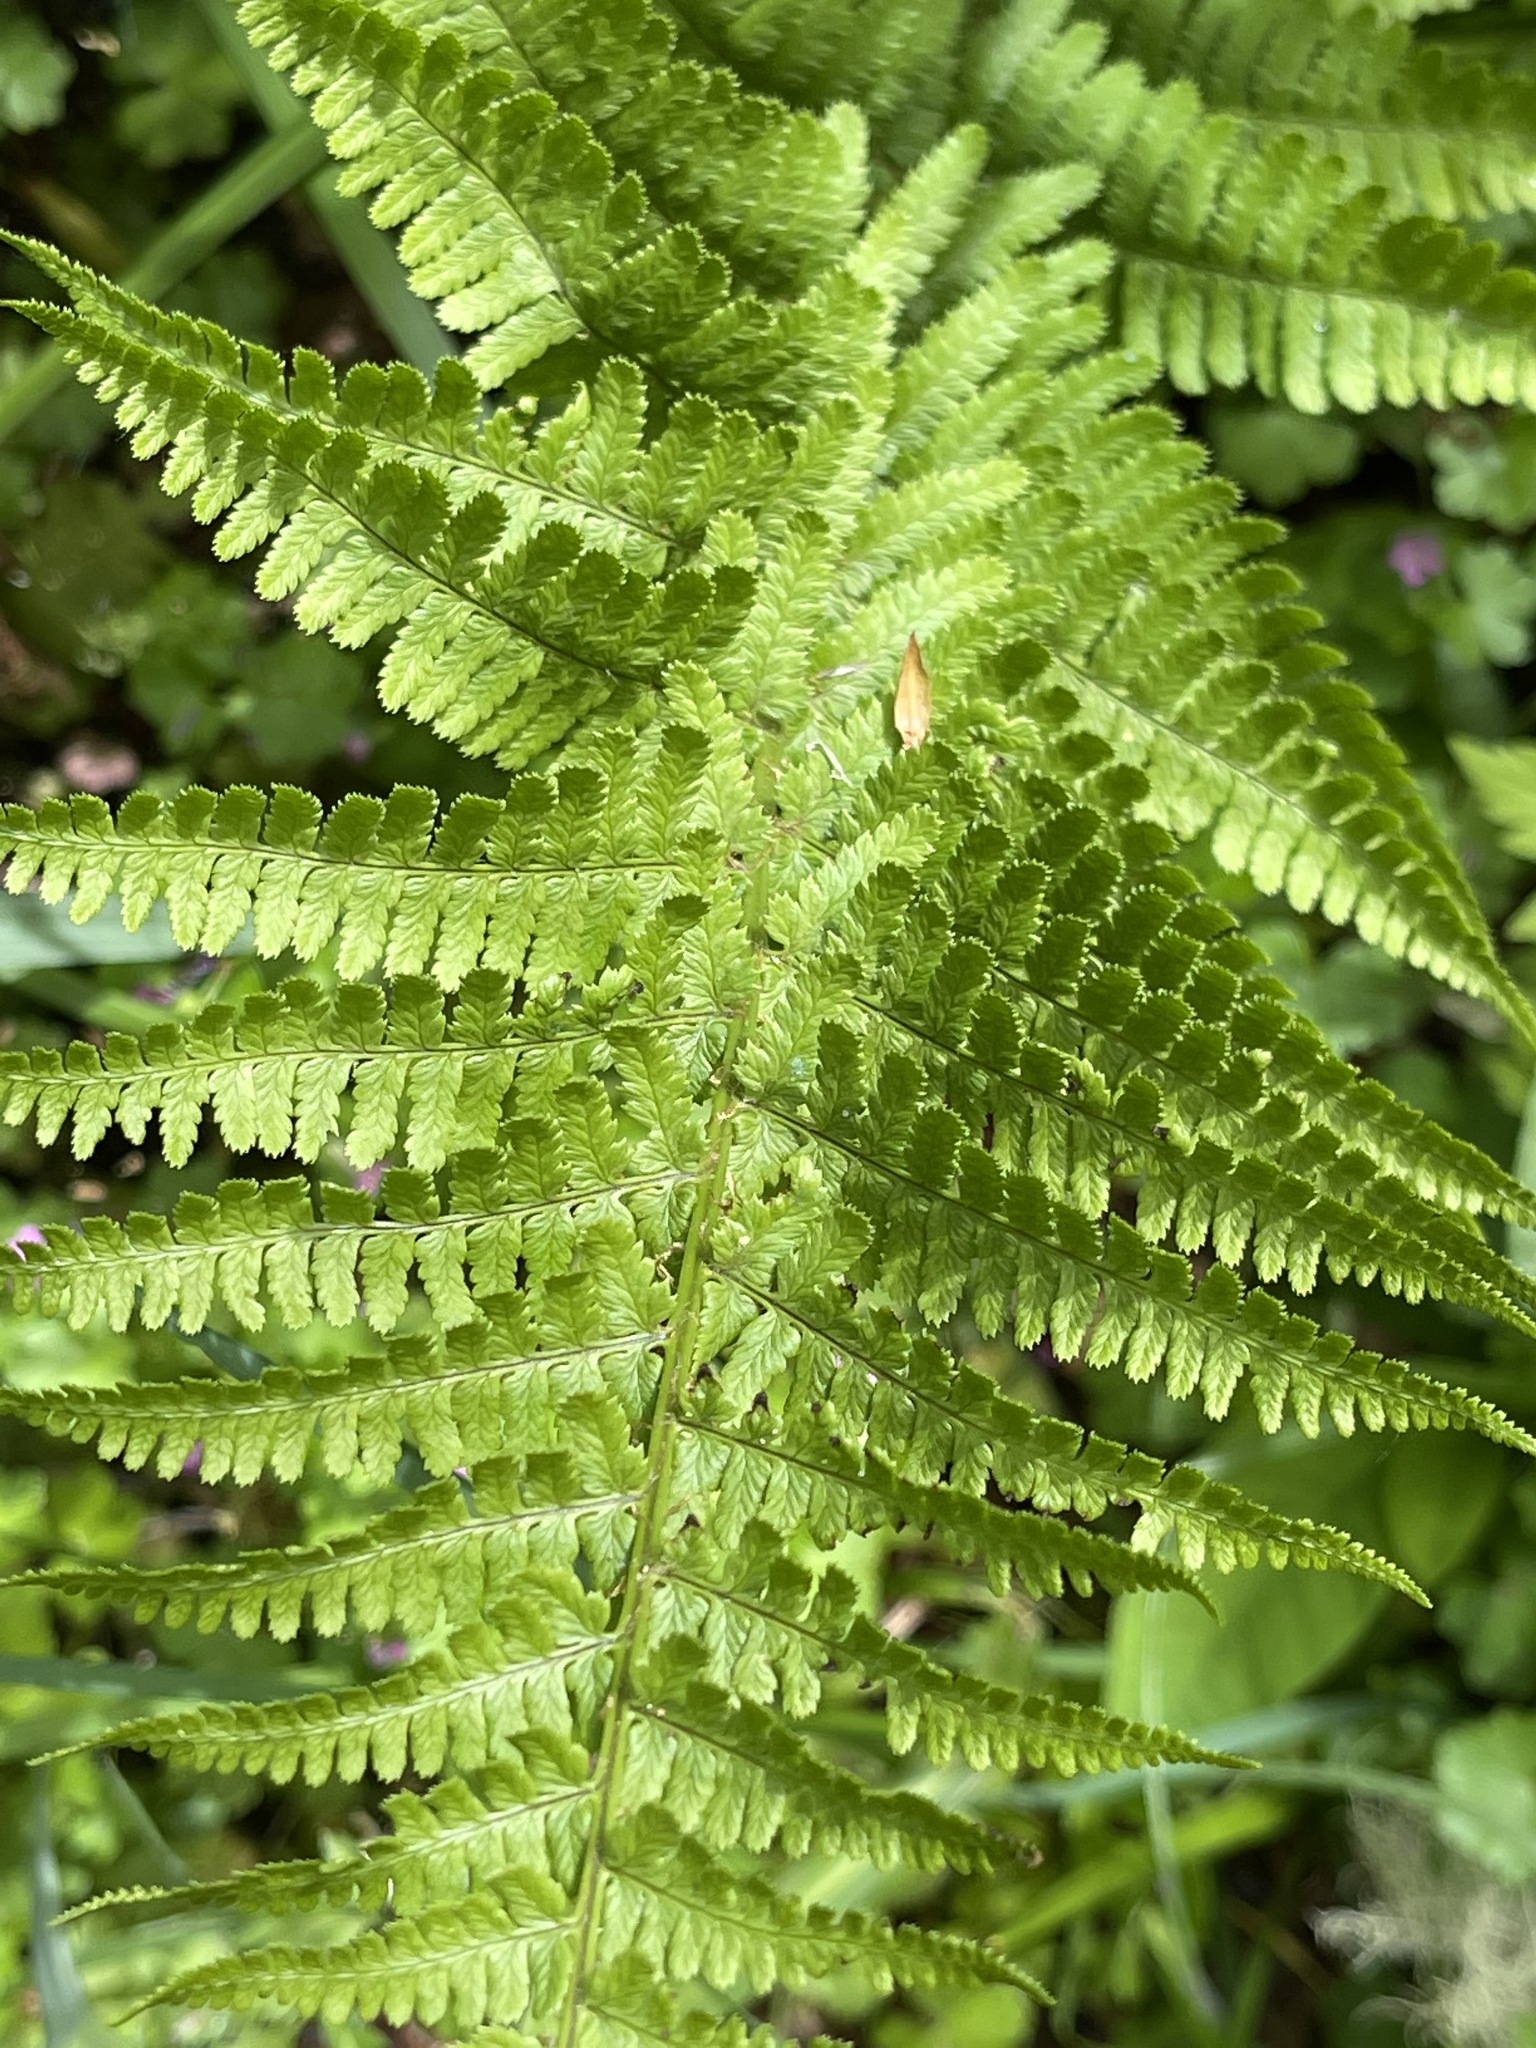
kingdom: Plantae
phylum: Tracheophyta
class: Polypodiopsida
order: Polypodiales
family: Dryopteridaceae
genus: Dryopteris
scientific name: Dryopteris arguta
